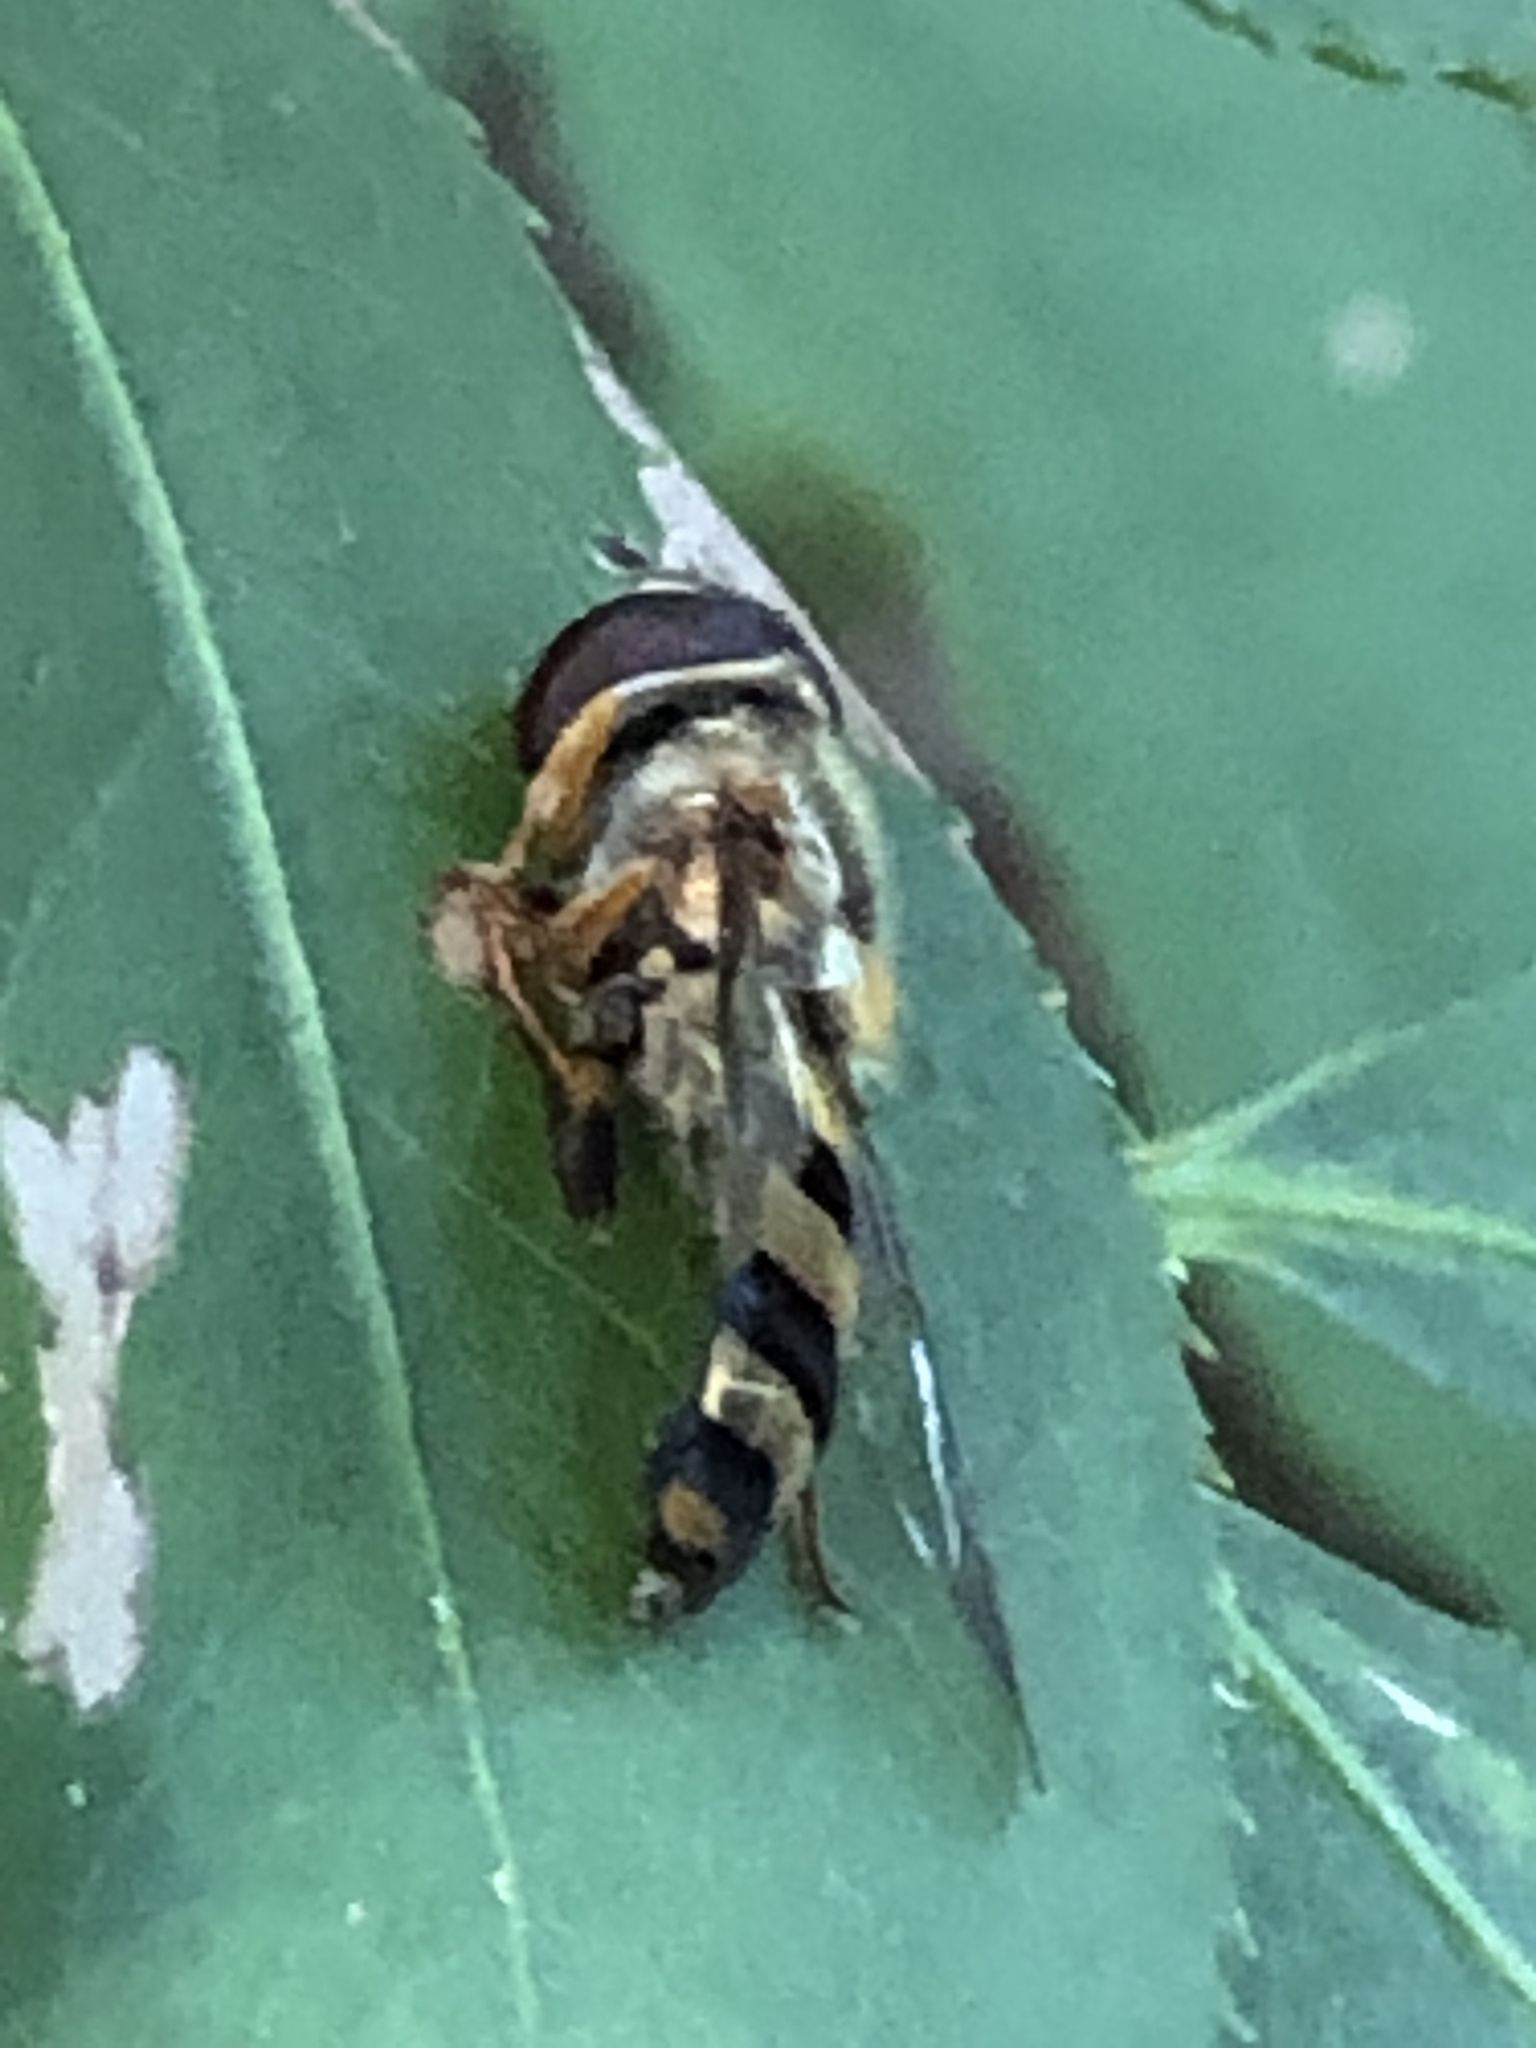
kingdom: Animalia
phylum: Arthropoda
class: Insecta
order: Diptera
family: Syrphidae
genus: Eupeodes
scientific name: Eupeodes
